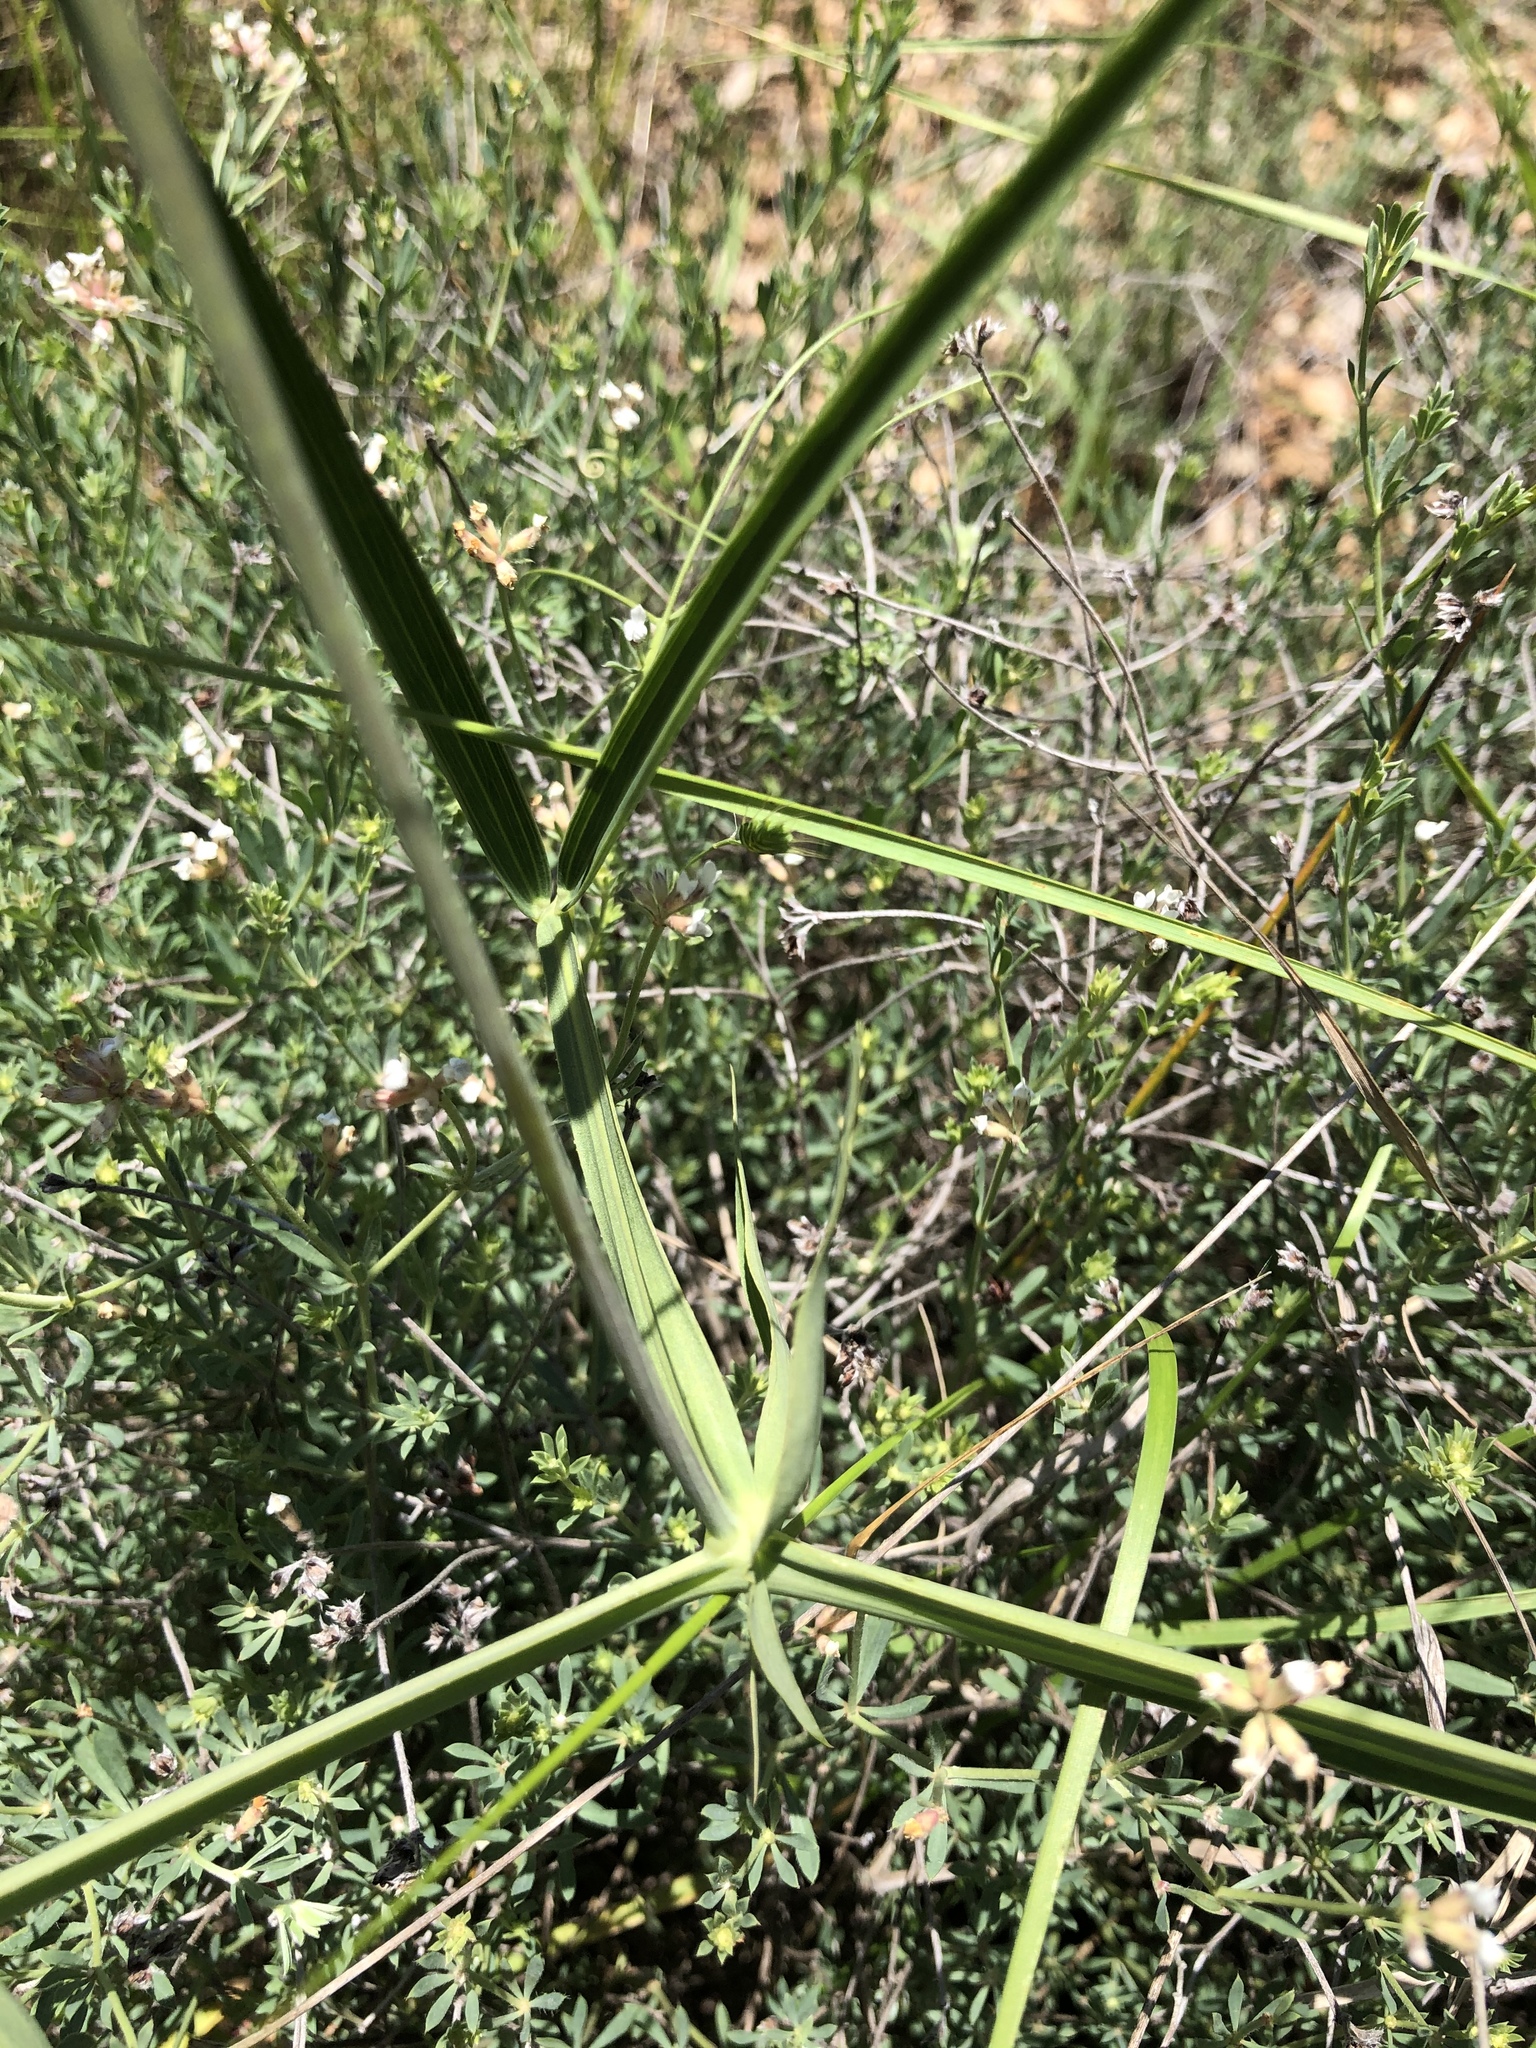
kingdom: Plantae
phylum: Tracheophyta
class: Magnoliopsida
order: Fabales
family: Fabaceae
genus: Lathyrus
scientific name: Lathyrus latifolius
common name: Perennial pea
